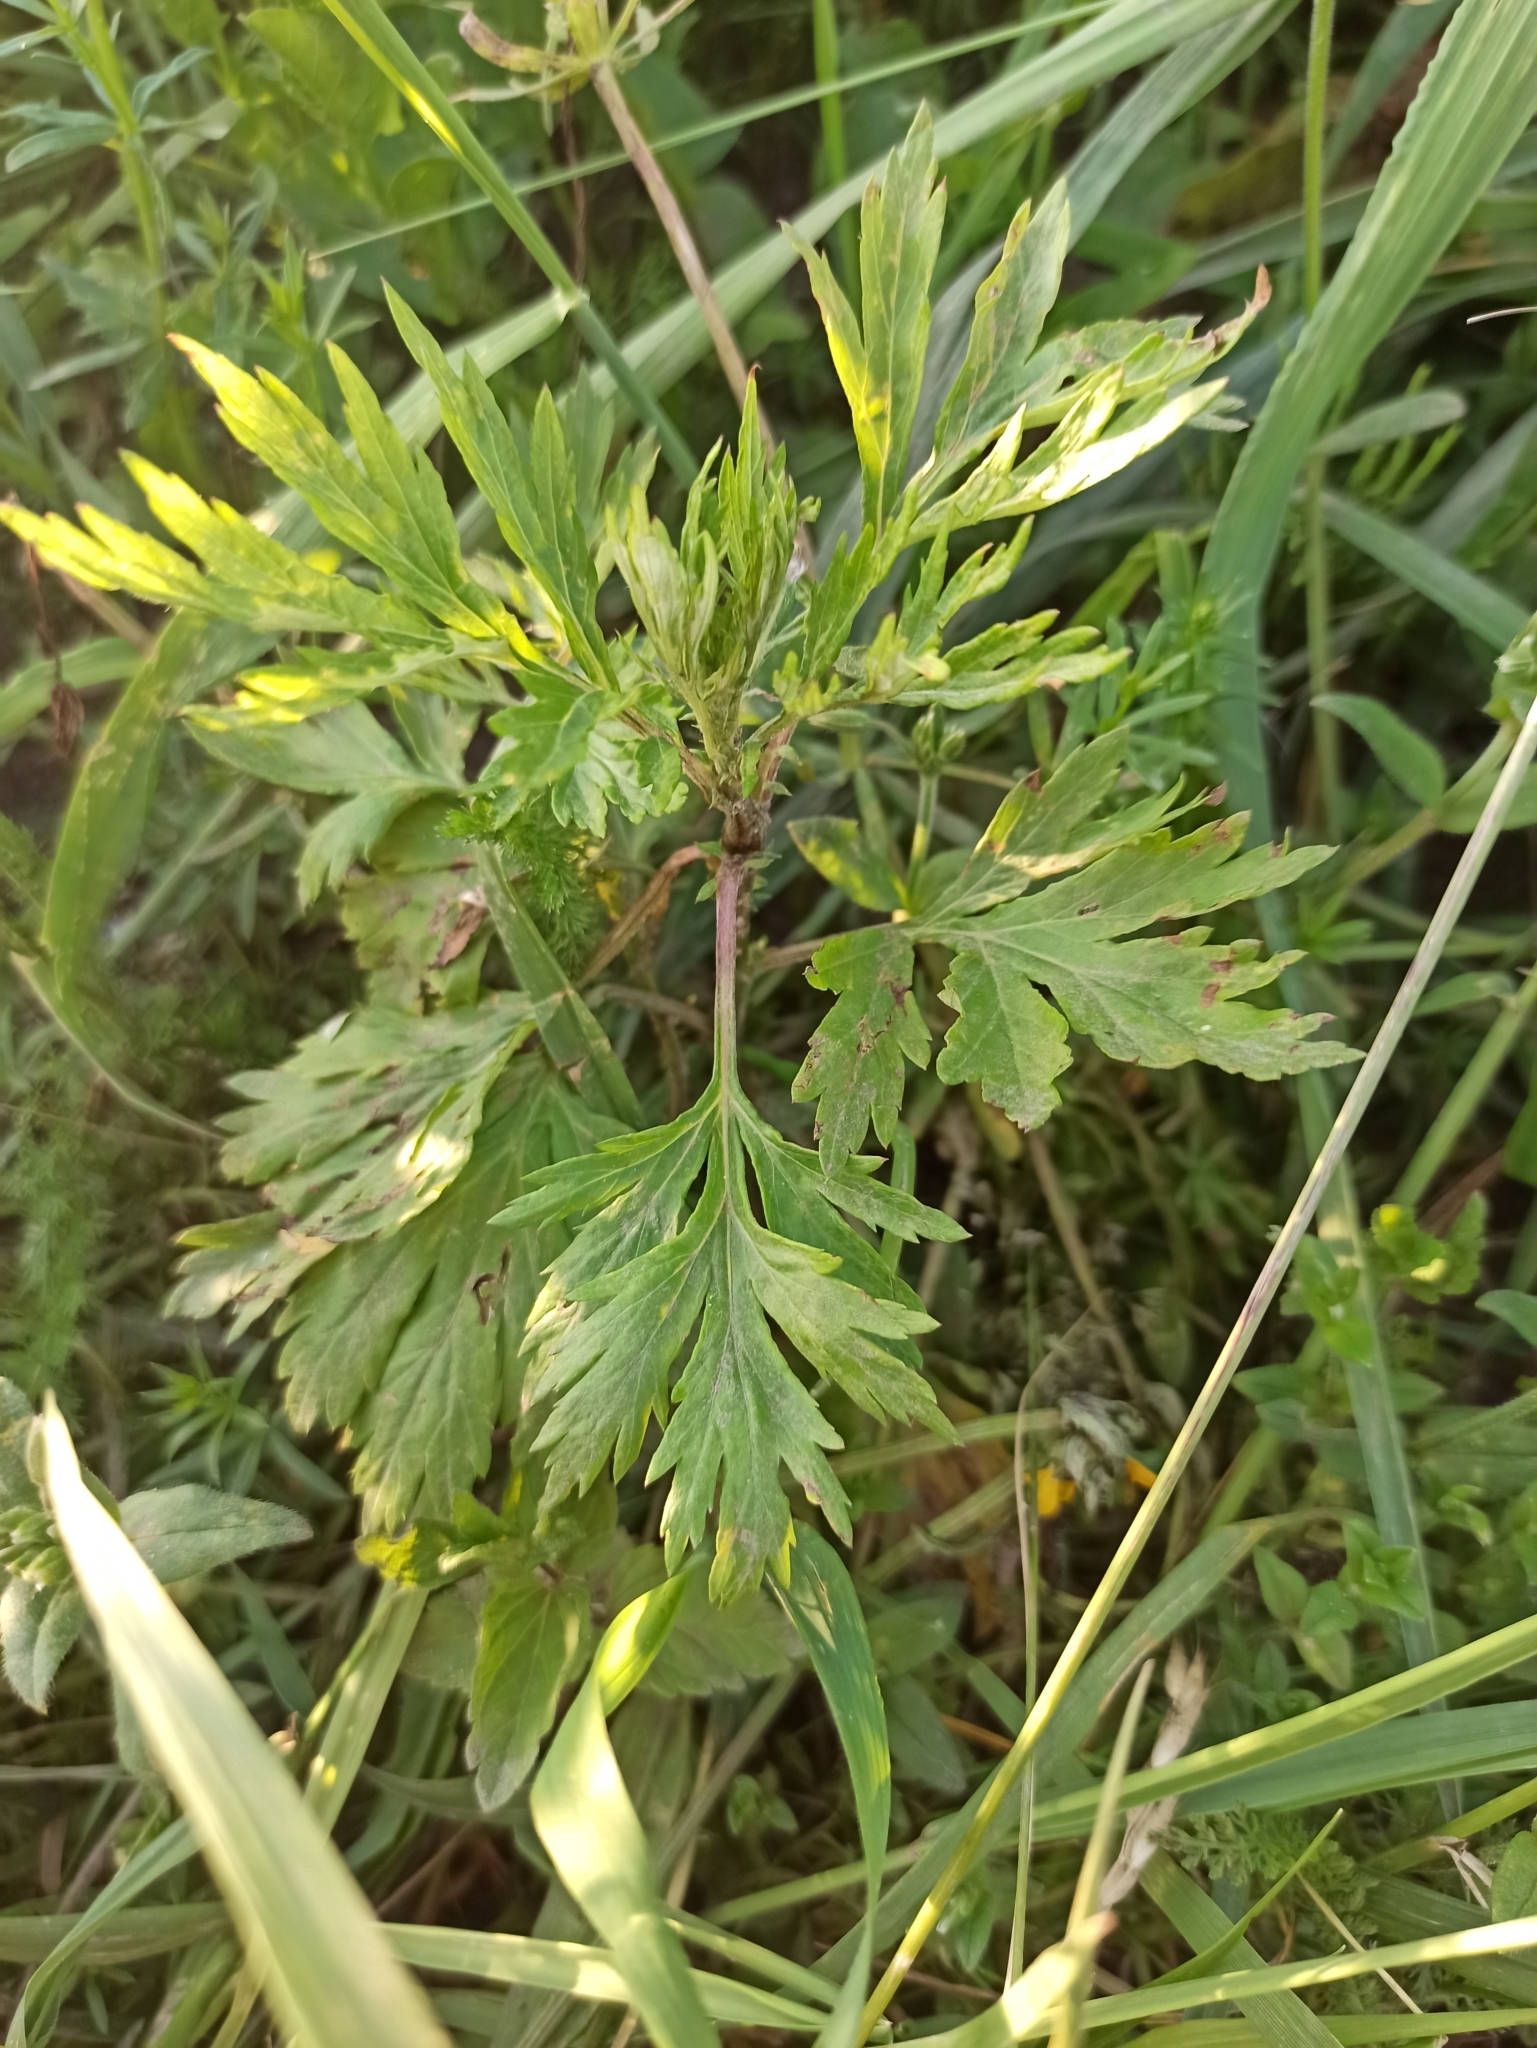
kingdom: Plantae
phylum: Tracheophyta
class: Magnoliopsida
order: Asterales
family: Asteraceae
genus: Artemisia
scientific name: Artemisia vulgaris
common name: Mugwort
